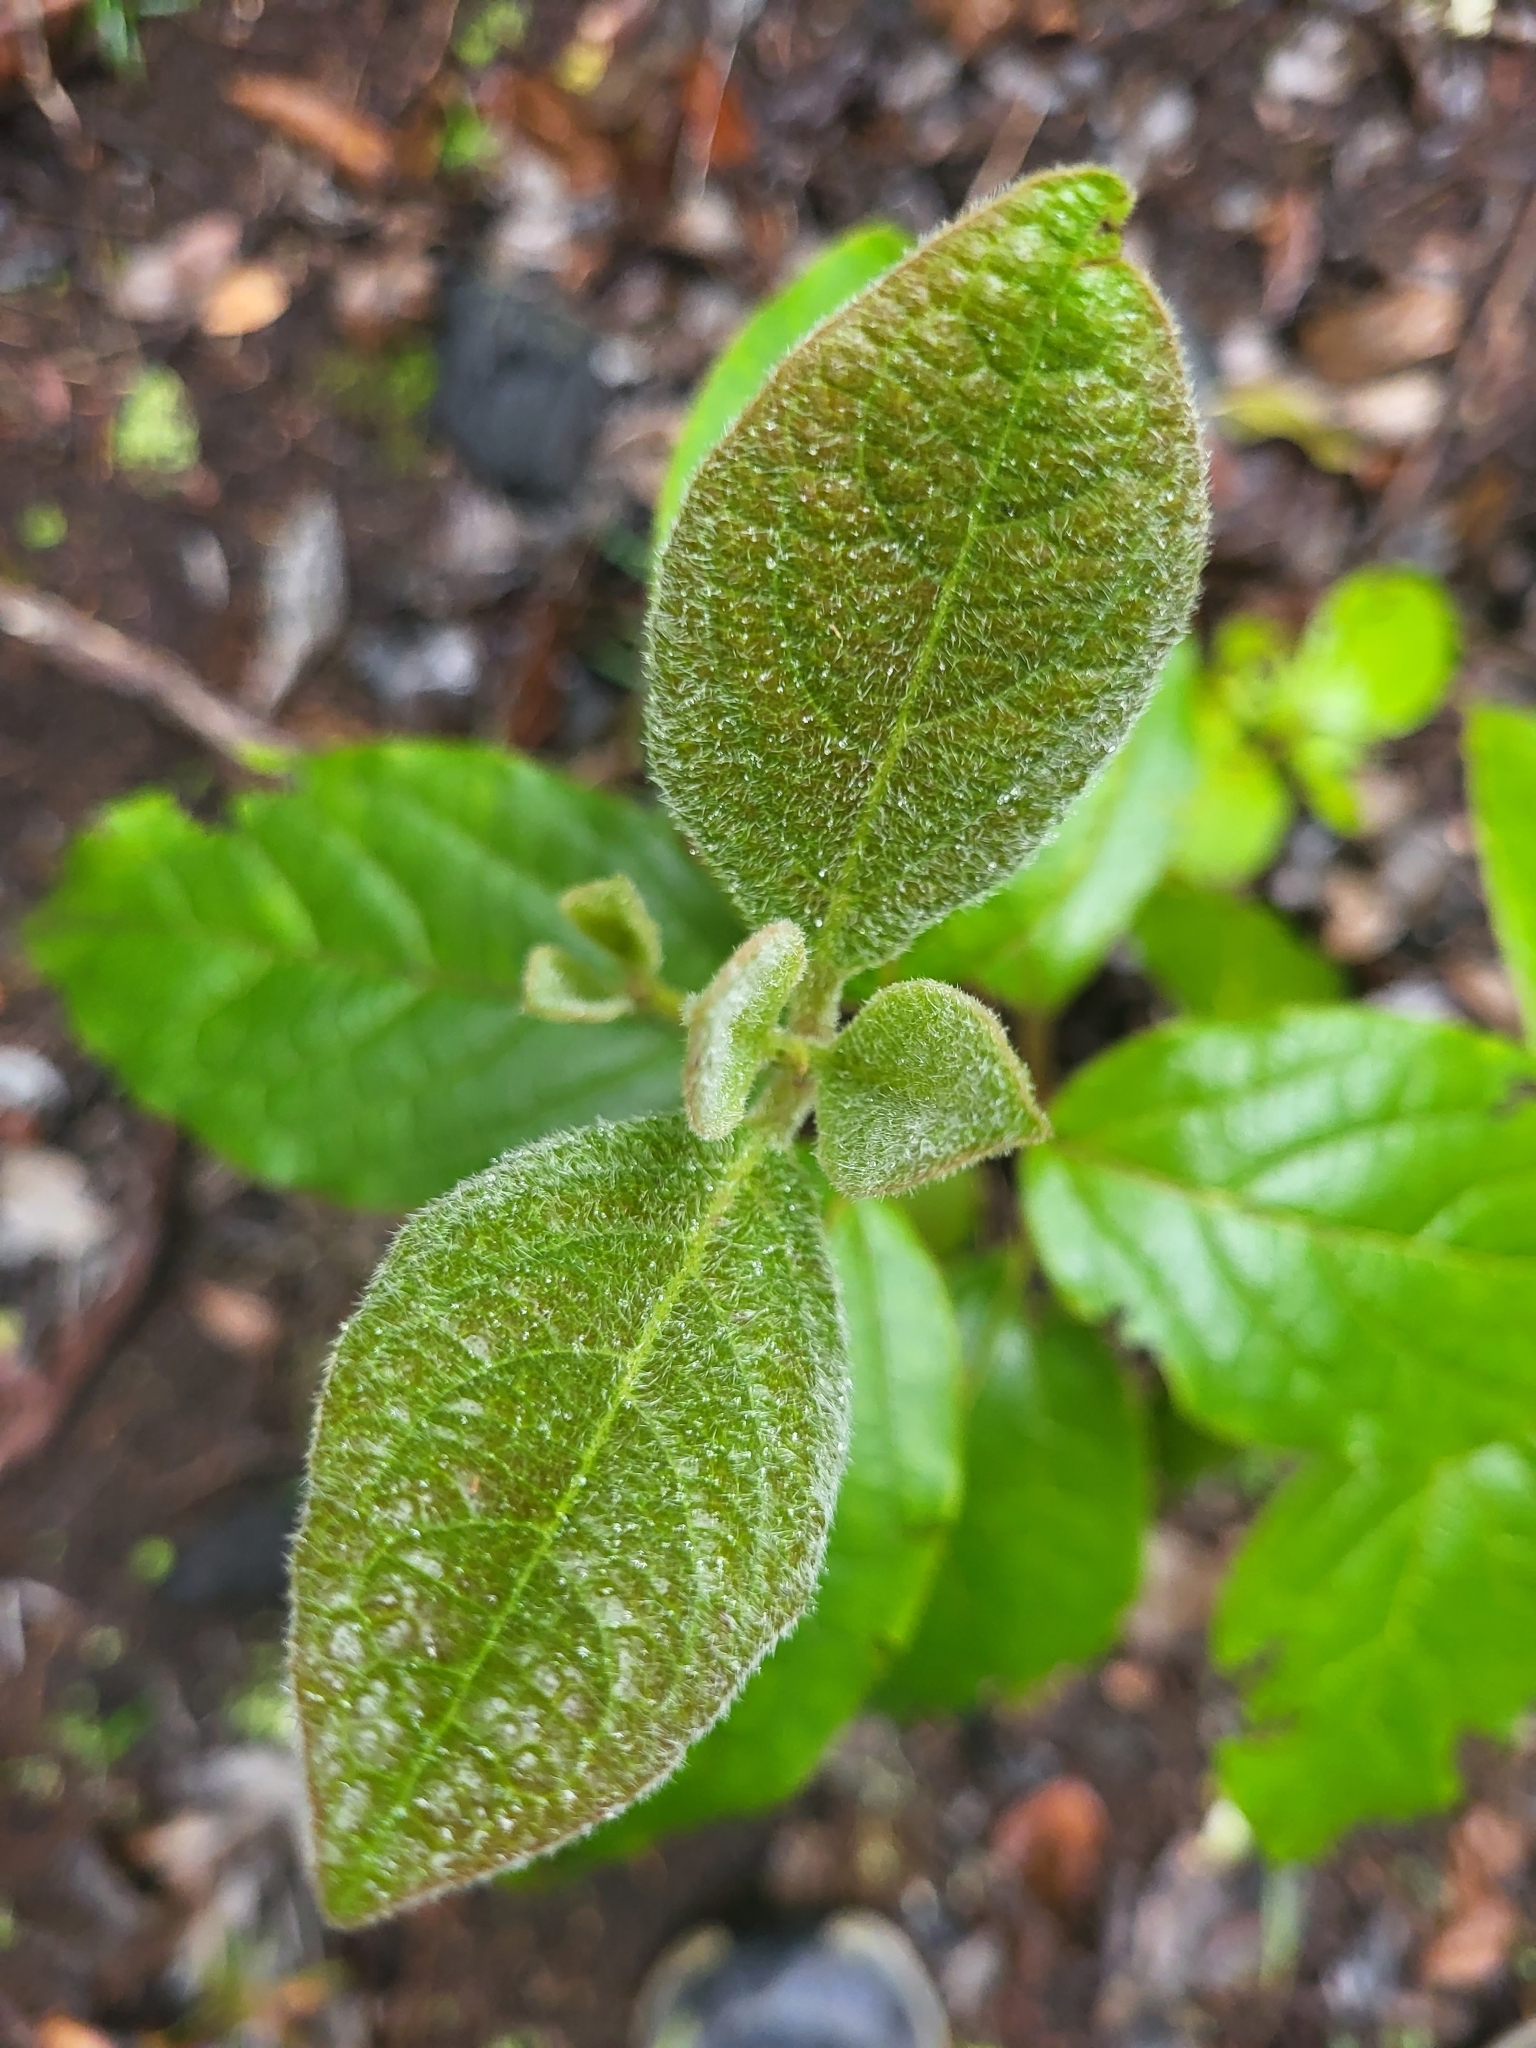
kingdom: Plantae
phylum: Tracheophyta
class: Magnoliopsida
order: Dipsacales
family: Viburnaceae
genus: Viburnum
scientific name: Viburnum rugosum
